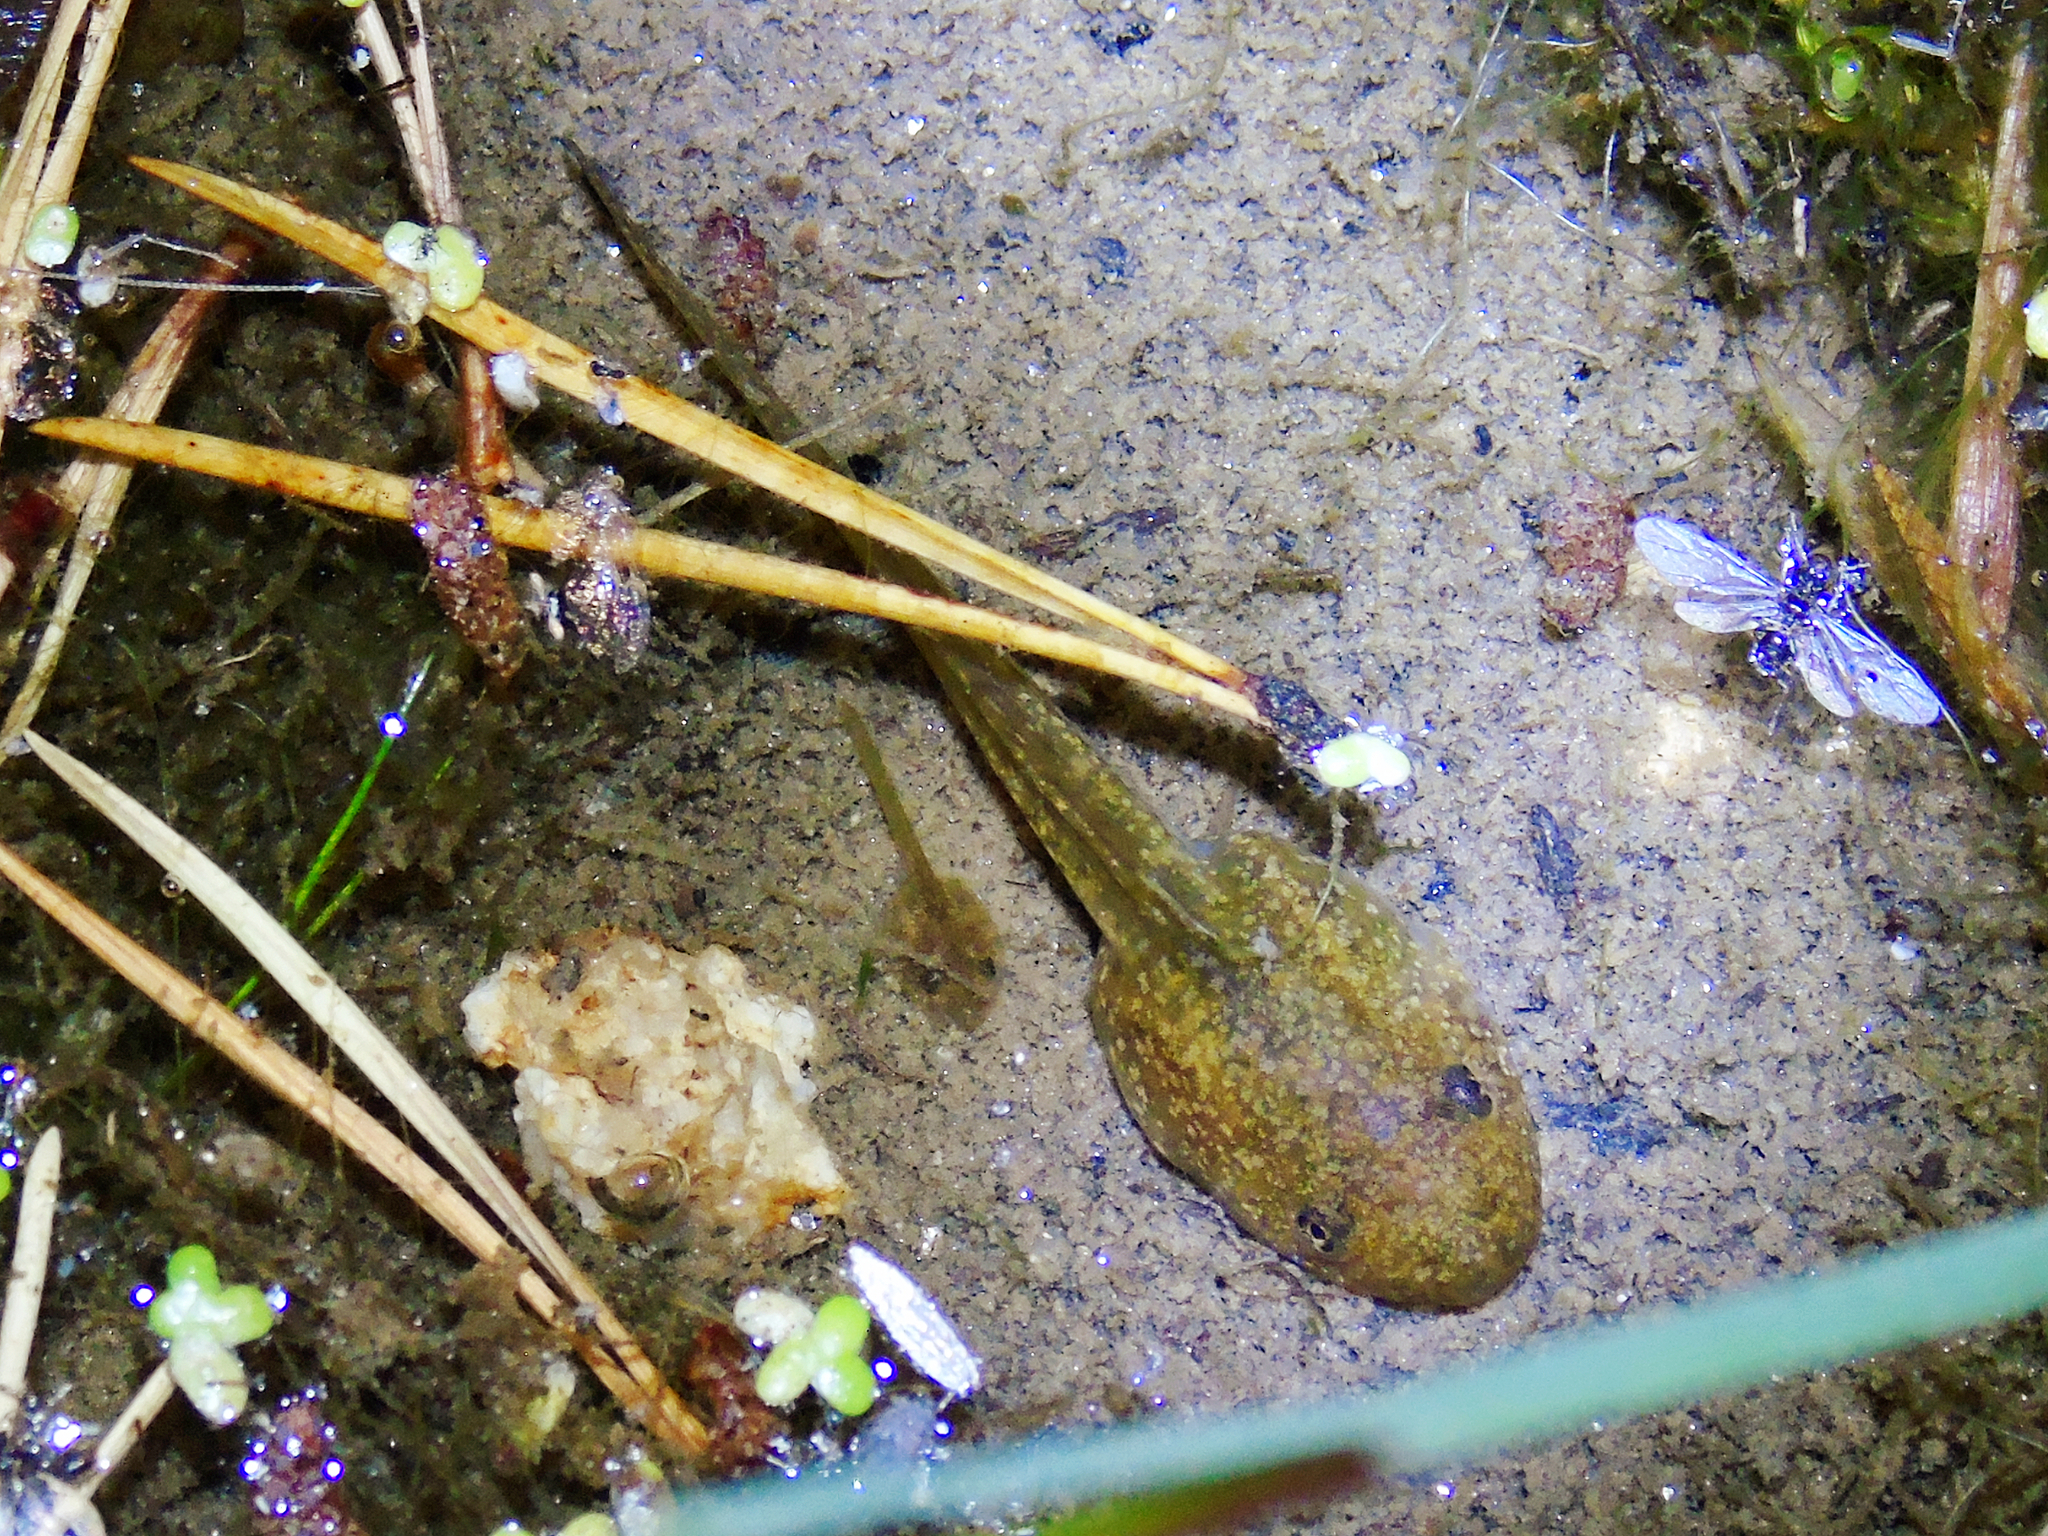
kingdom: Animalia
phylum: Chordata
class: Amphibia
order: Anura
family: Ranidae
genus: Rana
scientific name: Rana temporaria
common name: Common frog
